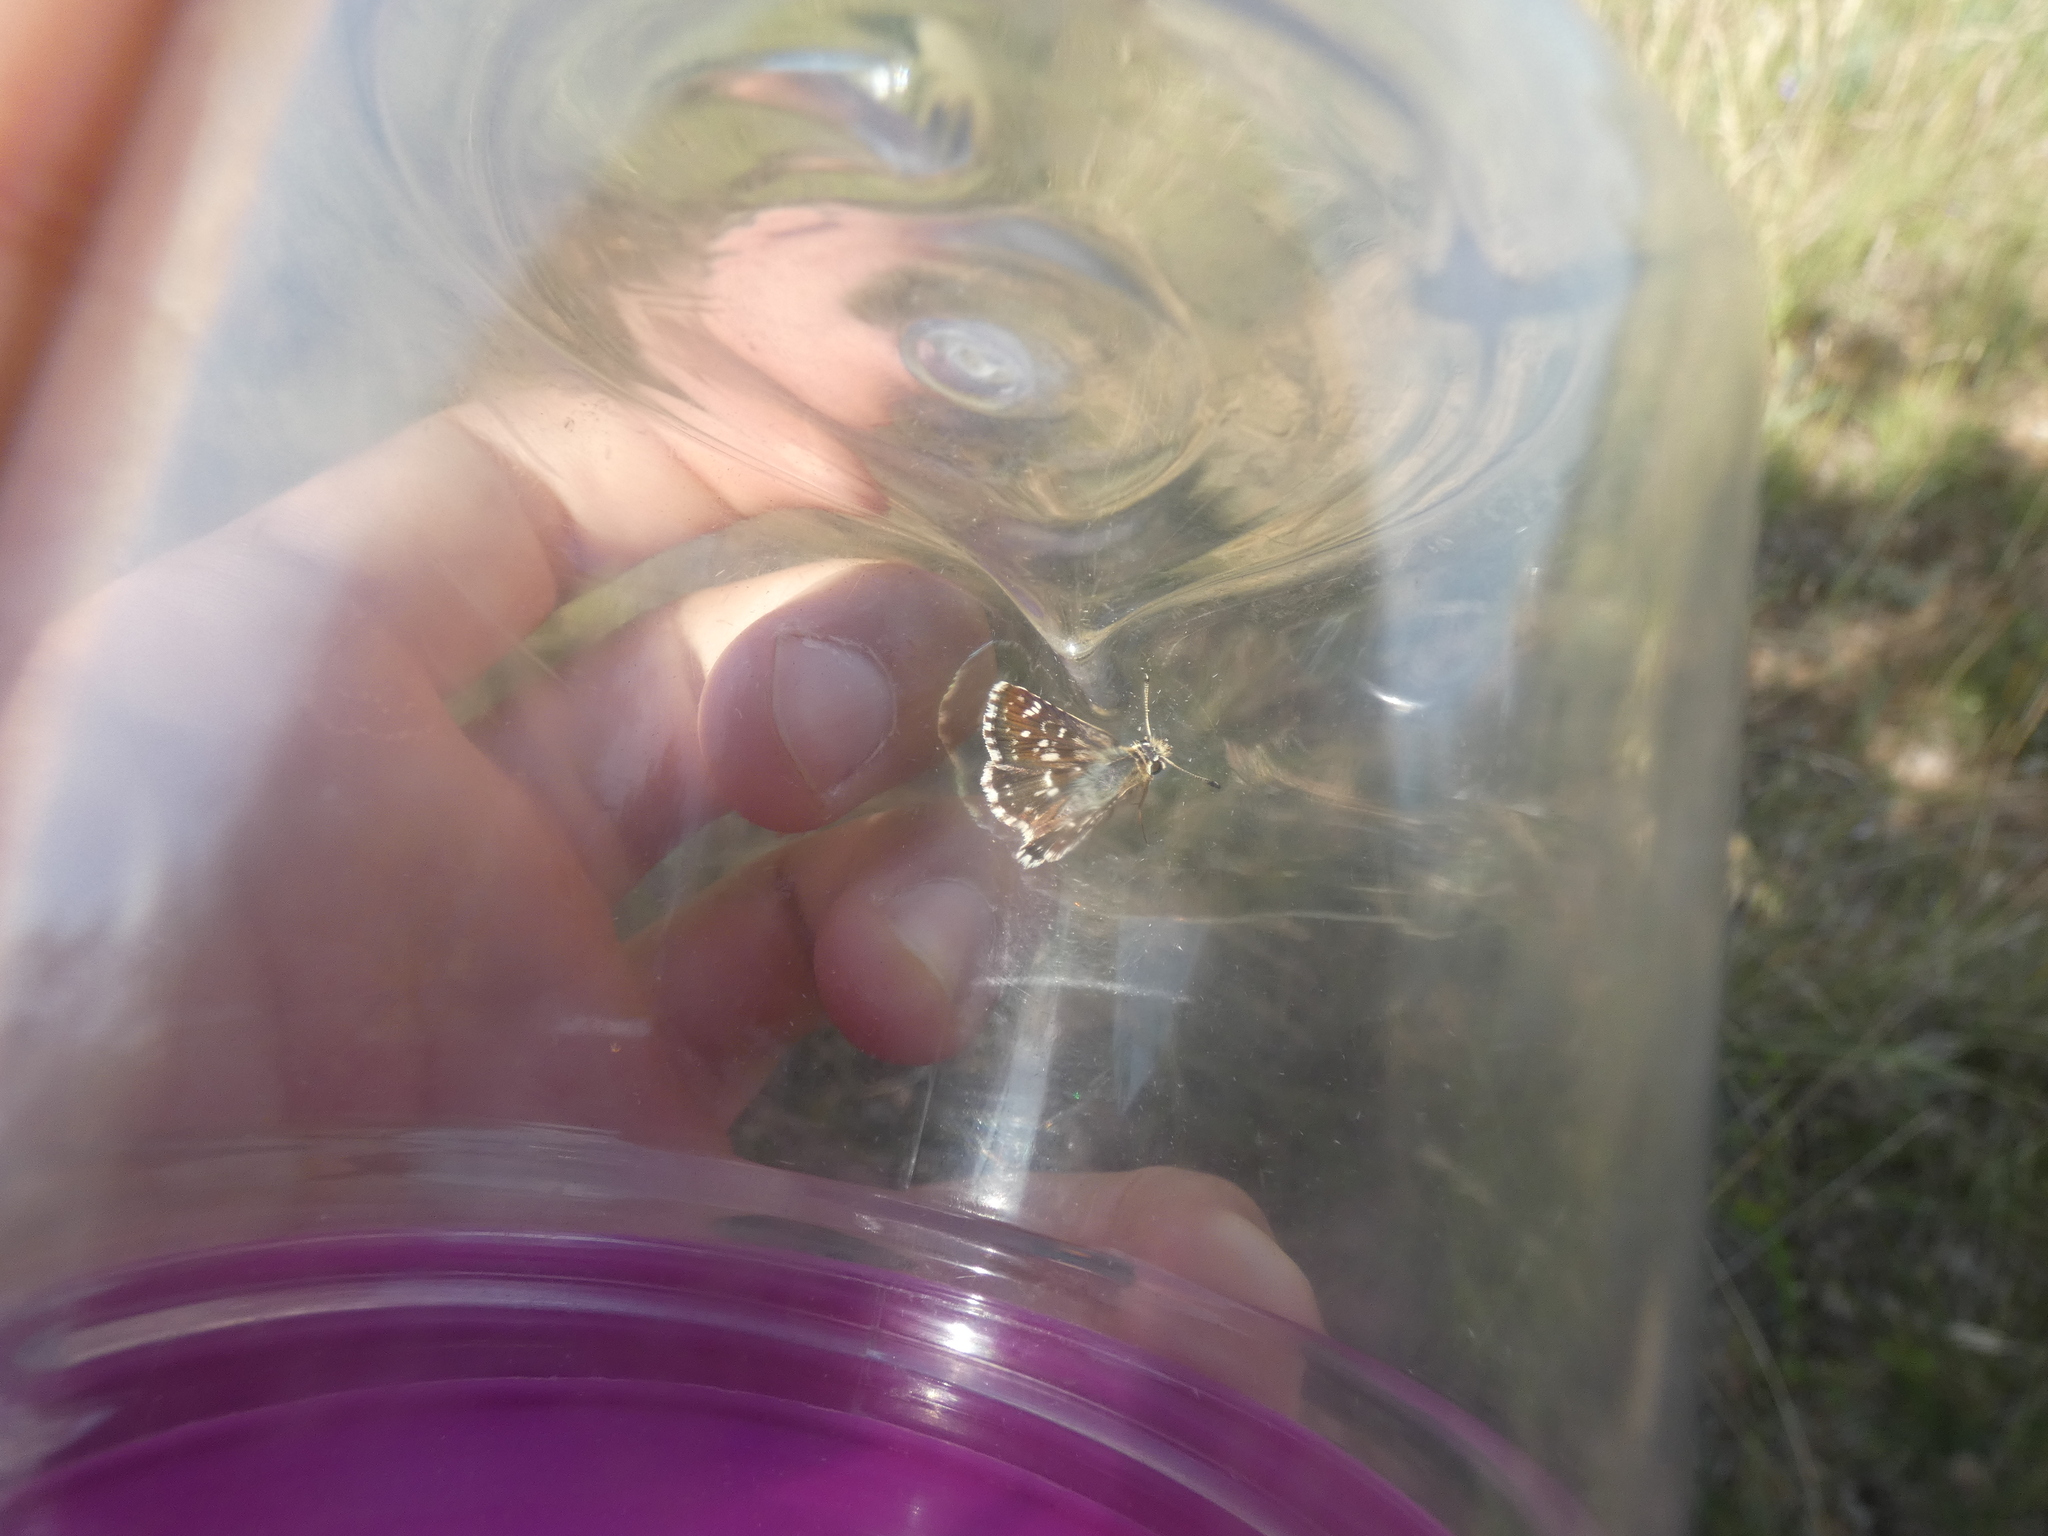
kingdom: Animalia
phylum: Arthropoda
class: Insecta
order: Lepidoptera
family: Hesperiidae
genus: Spialia
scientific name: Spialia sertorius
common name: Red underwing skipper
